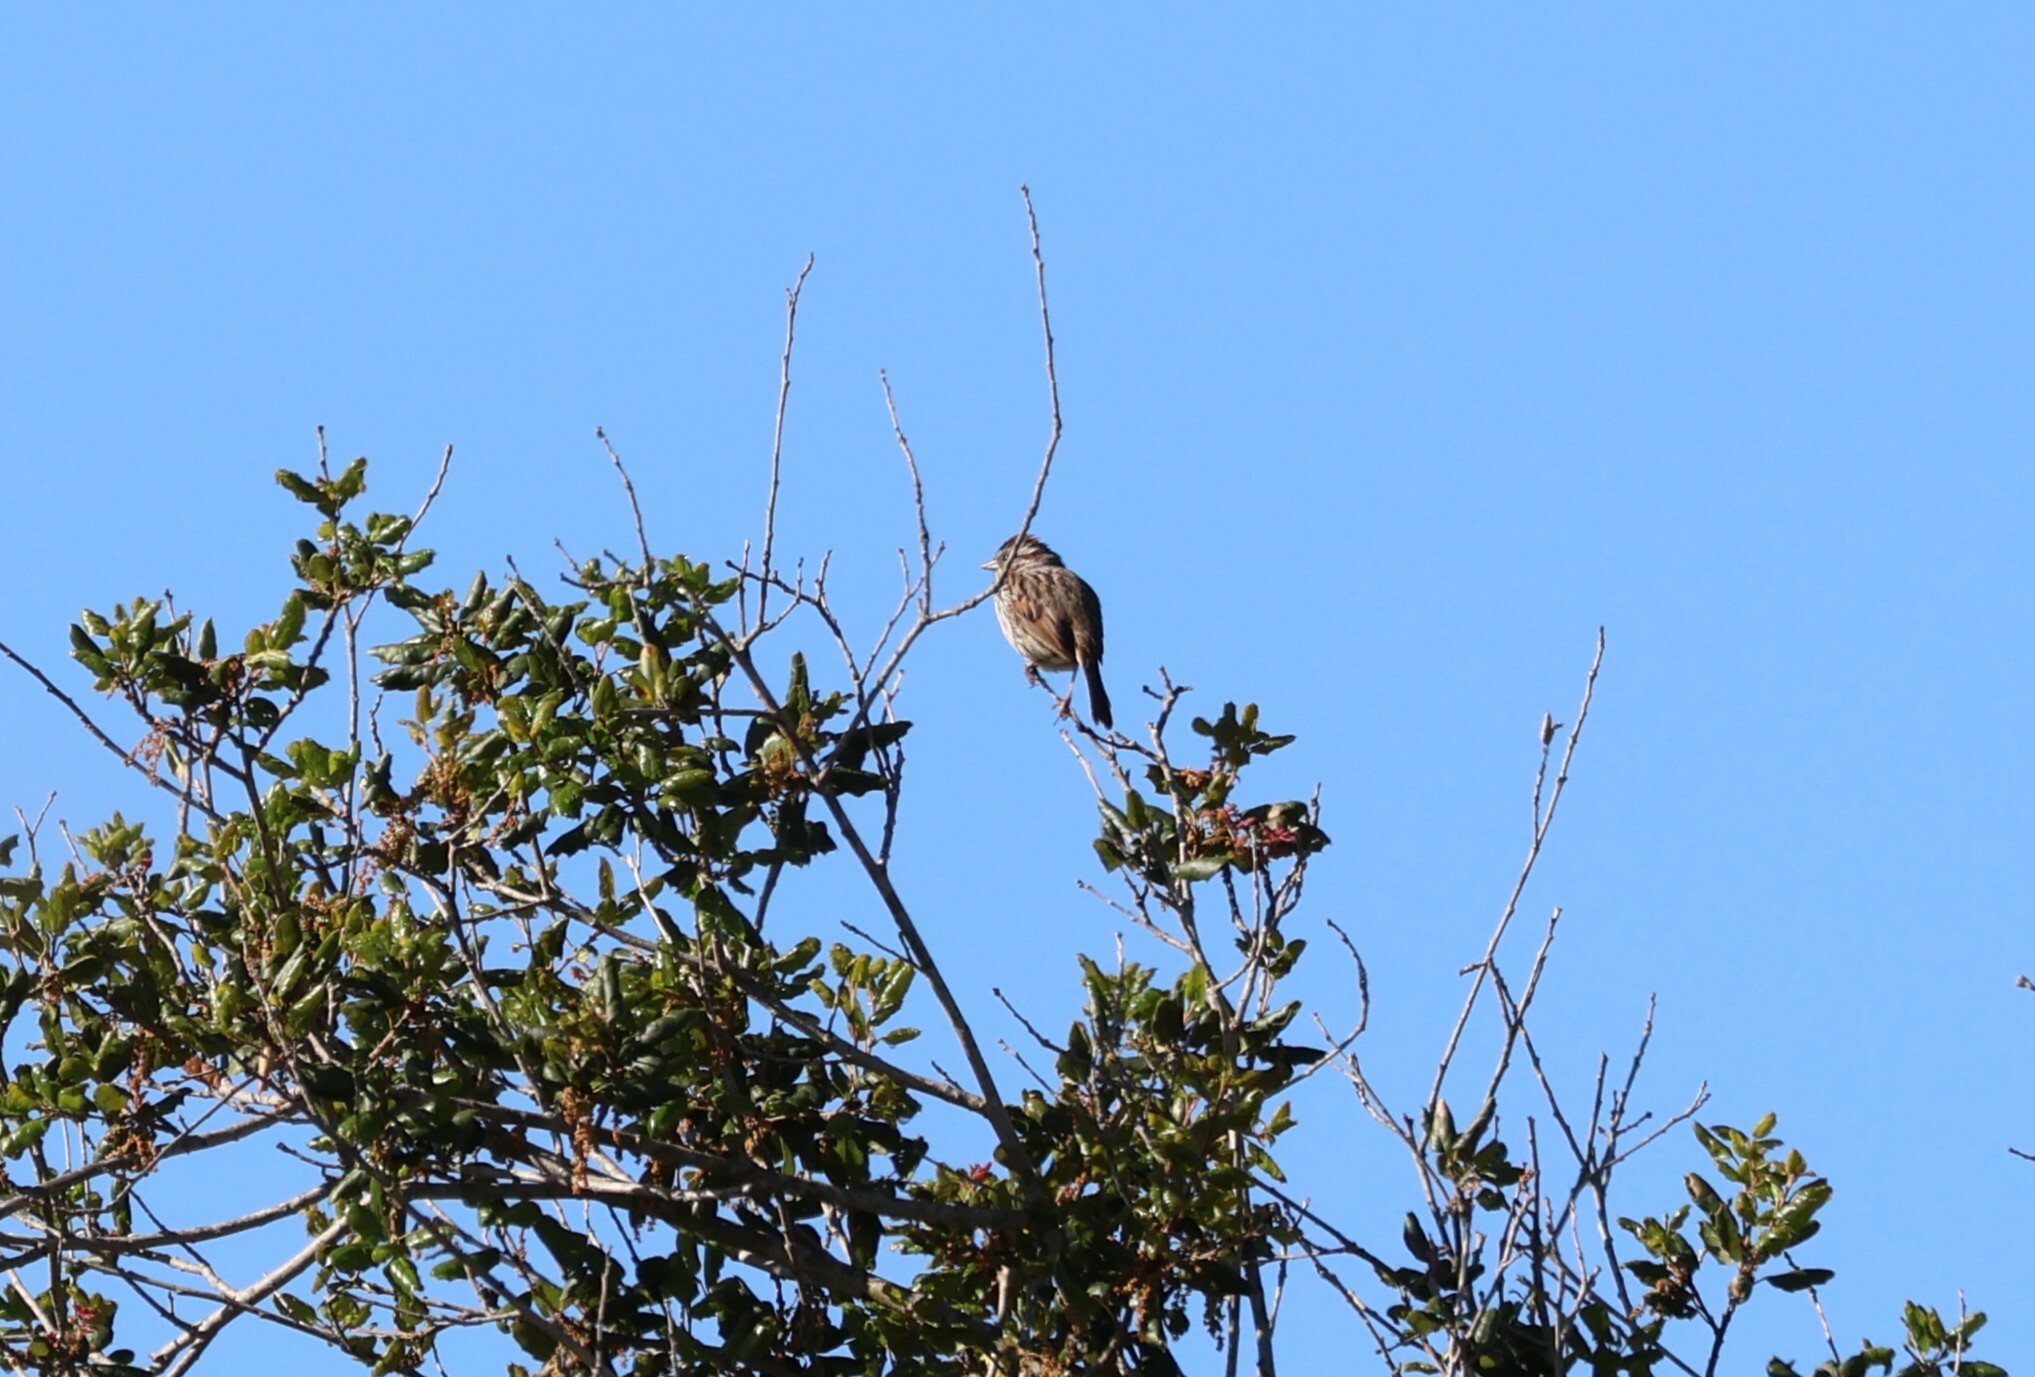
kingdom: Animalia
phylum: Chordata
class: Aves
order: Passeriformes
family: Passerellidae
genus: Melospiza
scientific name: Melospiza melodia
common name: Song sparrow
